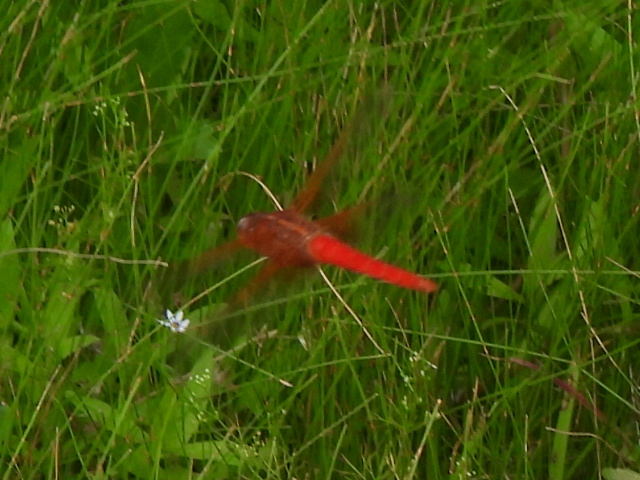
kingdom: Animalia
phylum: Arthropoda
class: Insecta
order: Odonata
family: Libellulidae
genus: Libellula
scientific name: Libellula croceipennis
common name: Neon skimmer
